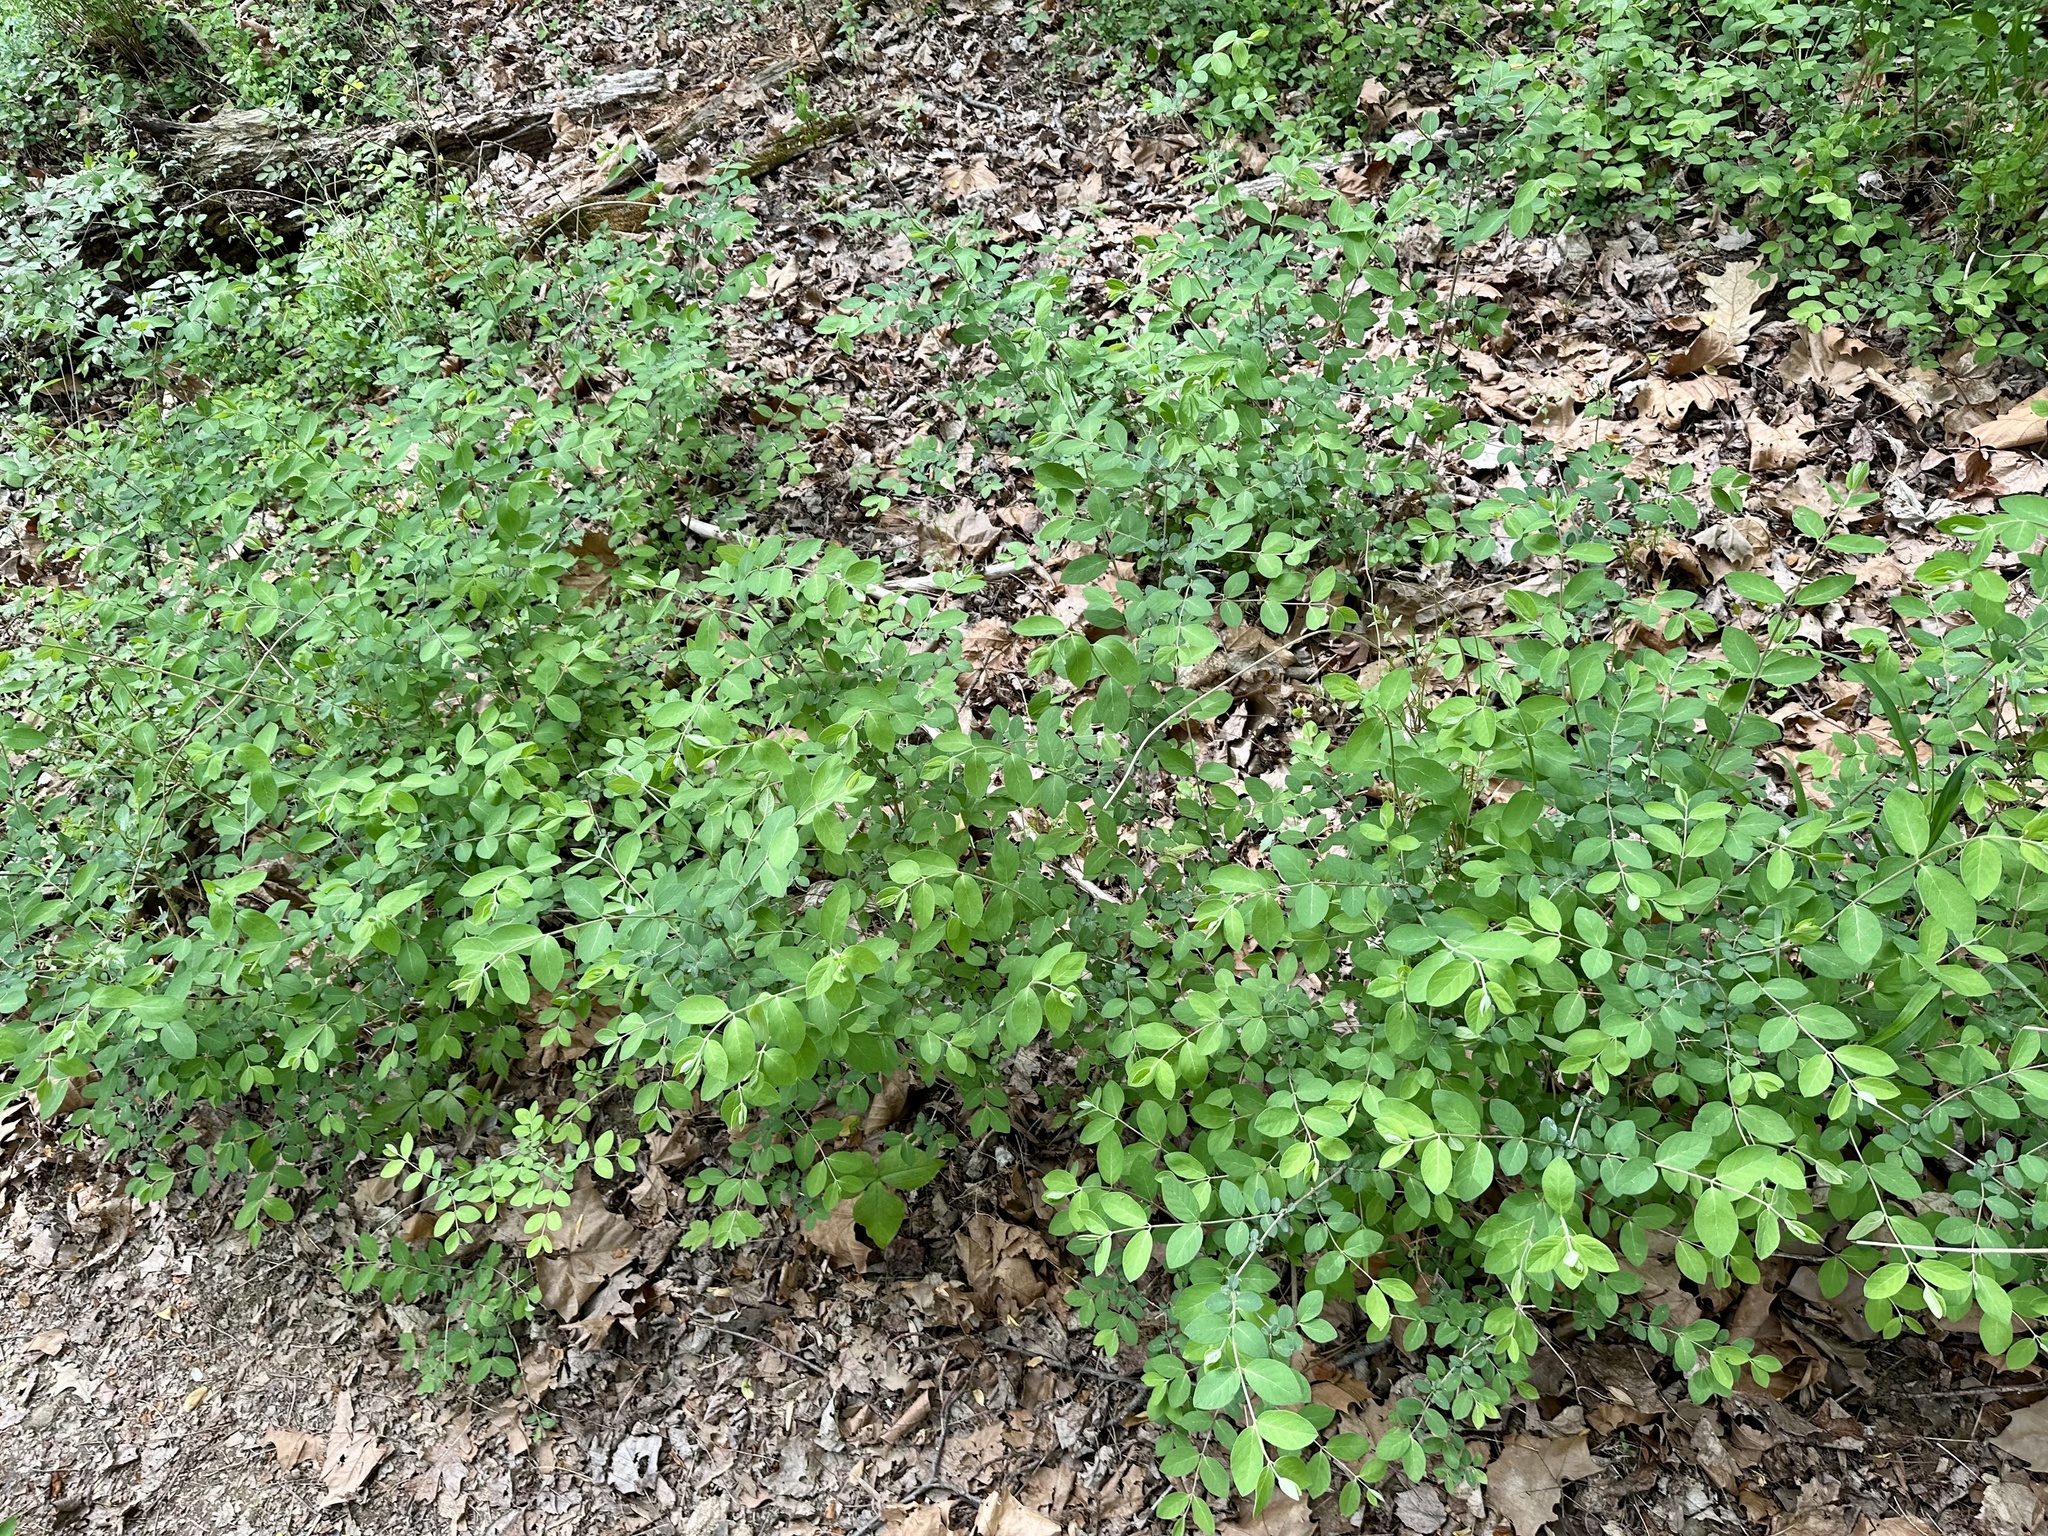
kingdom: Plantae
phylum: Tracheophyta
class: Magnoliopsida
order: Dipsacales
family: Caprifoliaceae
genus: Lonicera
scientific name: Lonicera morrowii
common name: Morrow's honeysuckle
